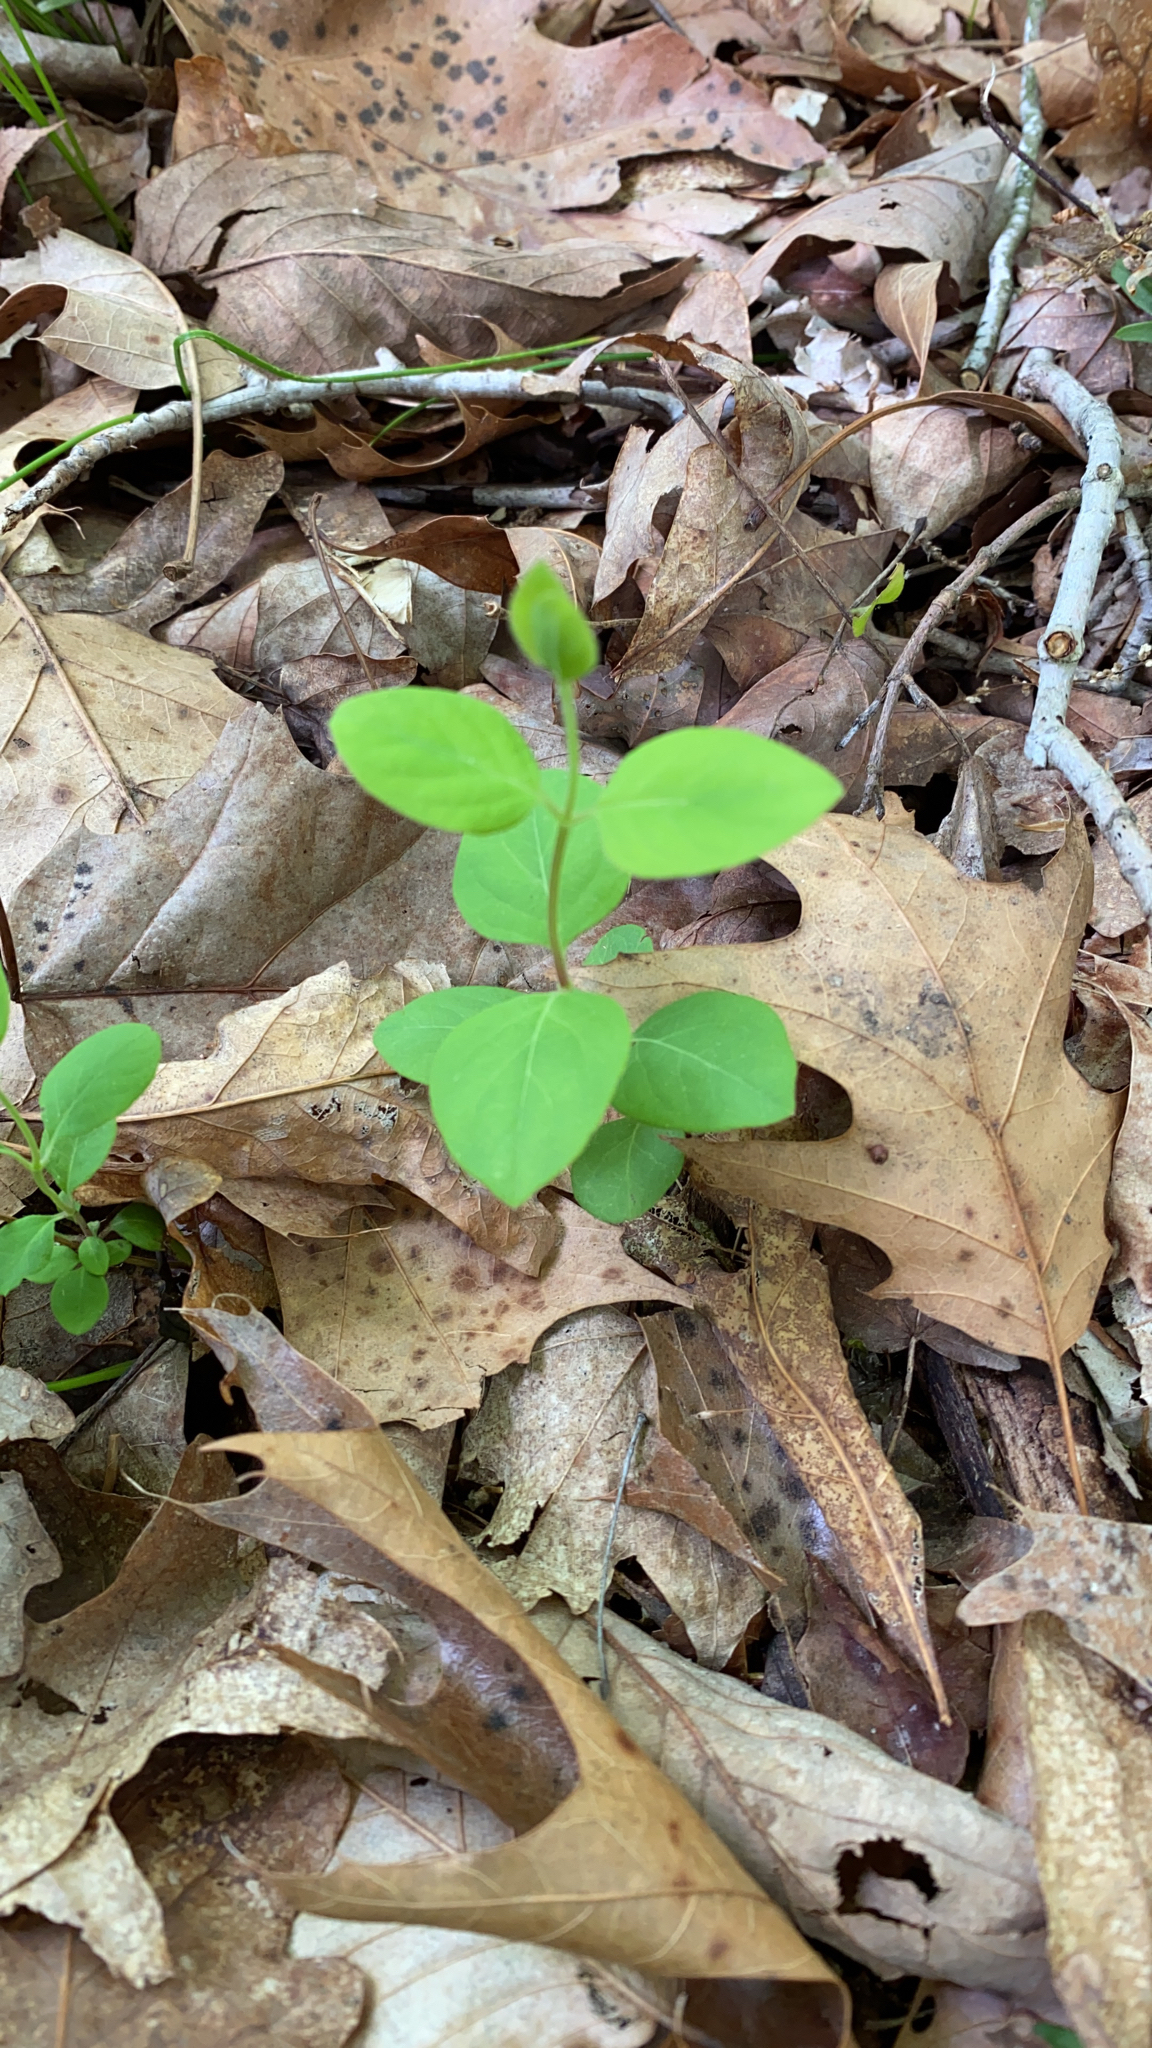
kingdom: Plantae
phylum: Tracheophyta
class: Magnoliopsida
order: Dipsacales
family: Caprifoliaceae
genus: Lonicera
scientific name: Lonicera japonica
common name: Japanese honeysuckle
